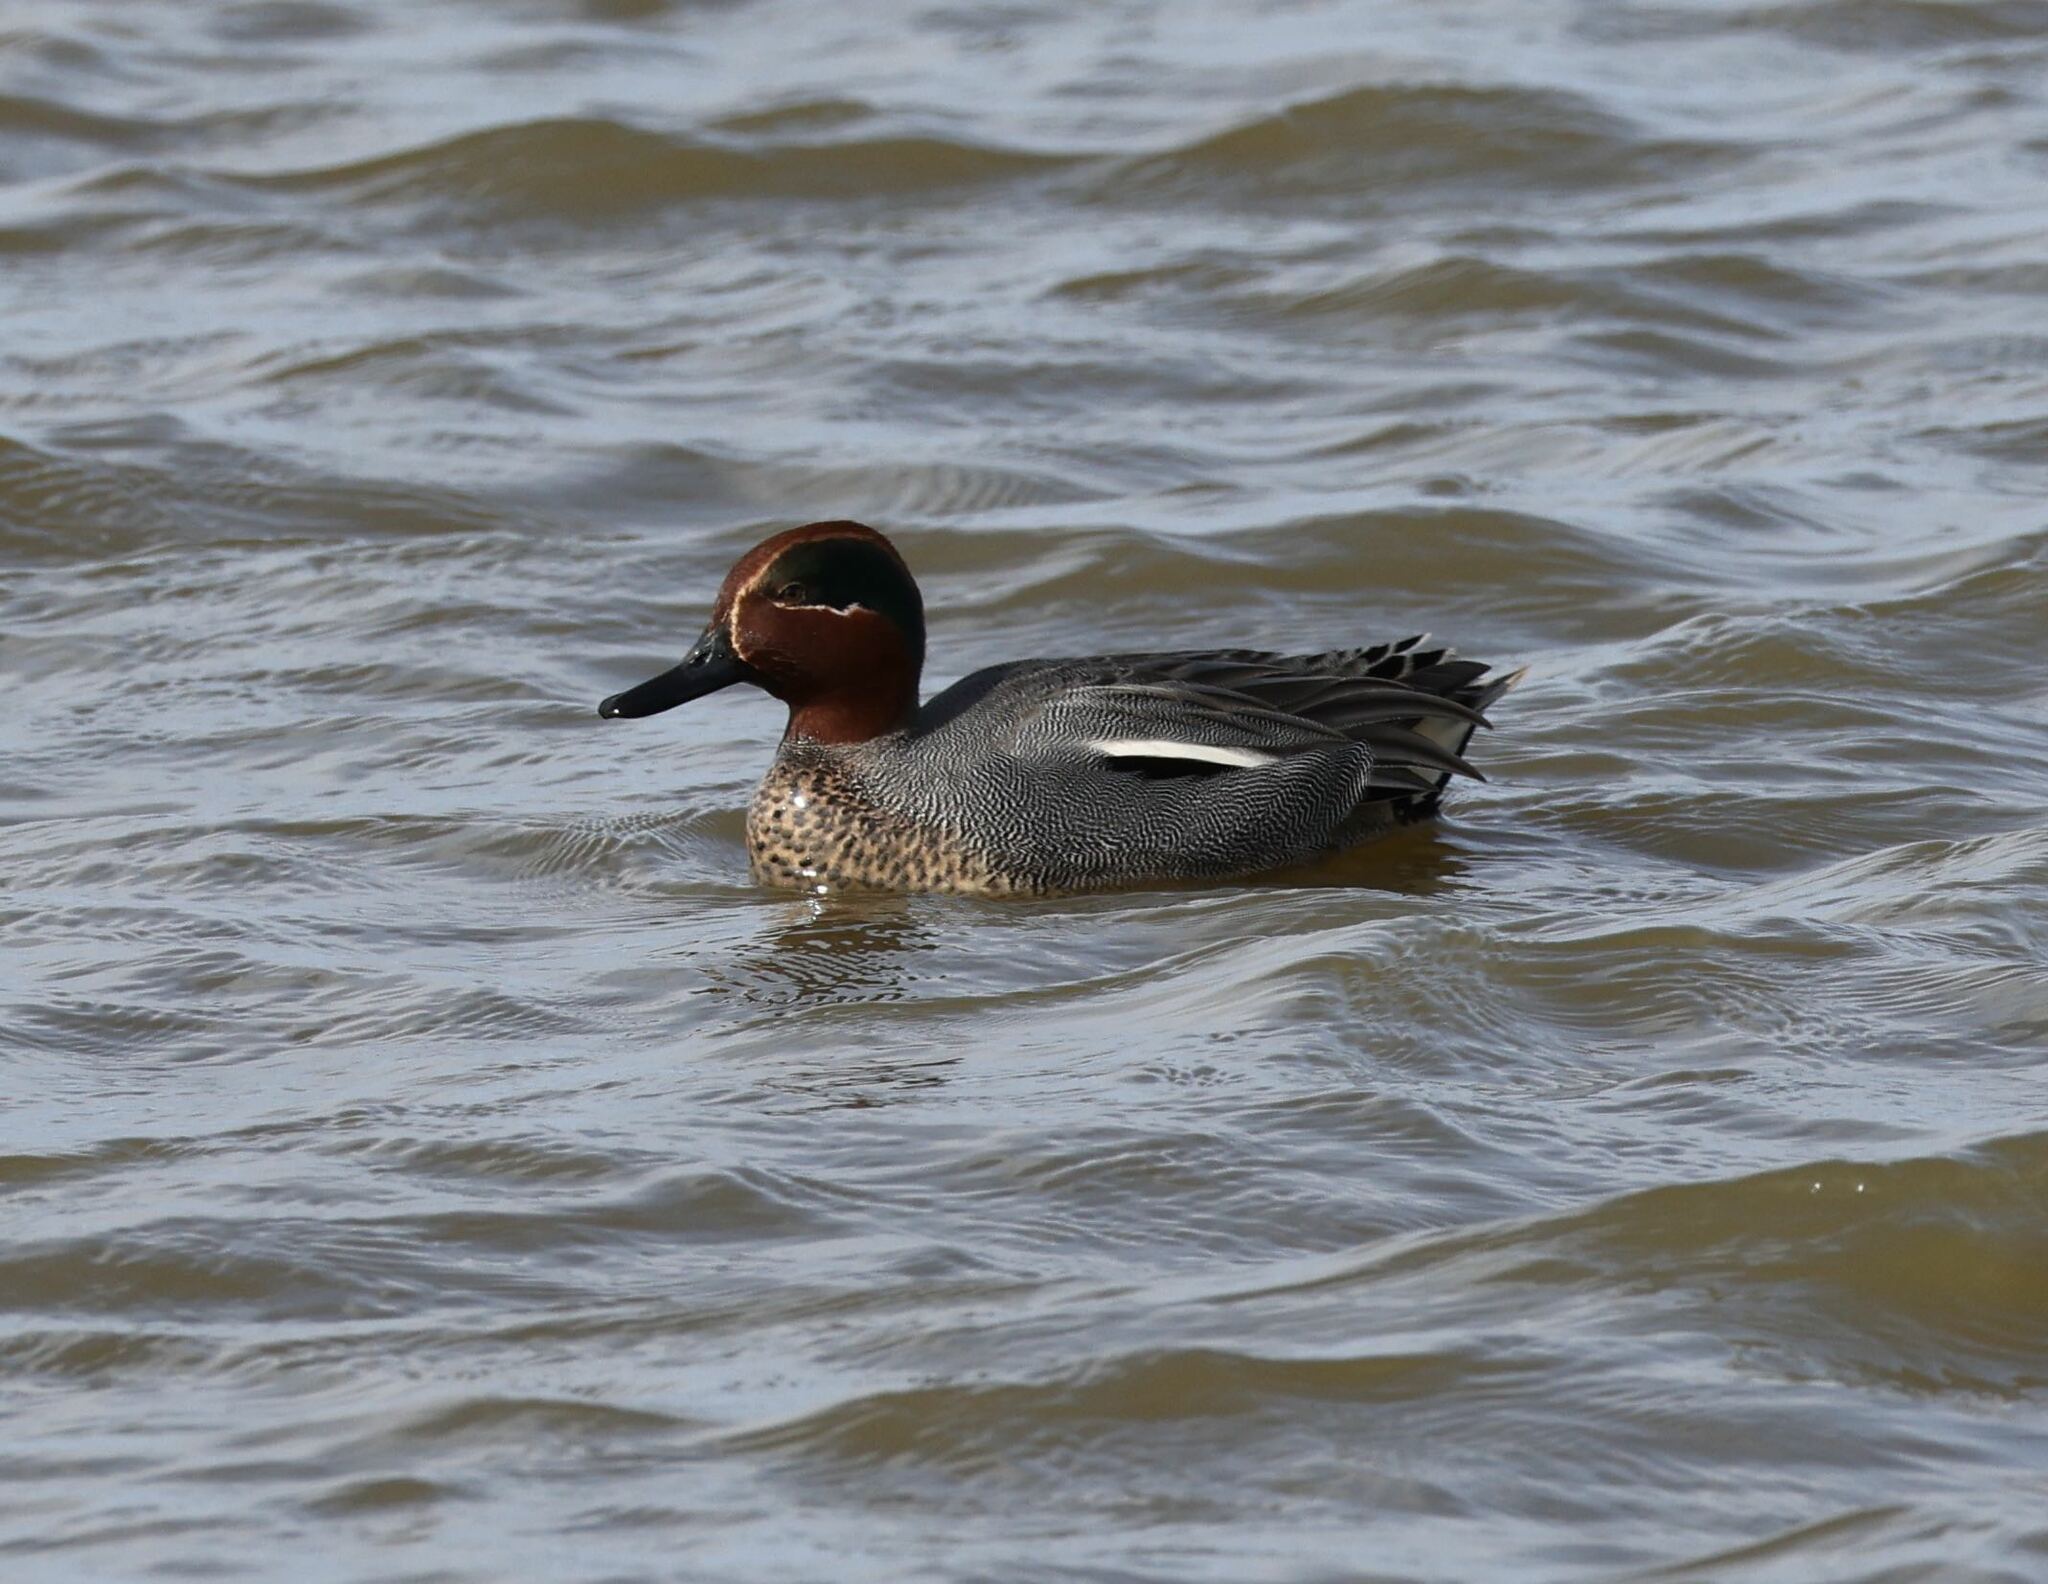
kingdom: Animalia
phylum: Chordata
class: Aves
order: Anseriformes
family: Anatidae
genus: Anas
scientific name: Anas crecca
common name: Eurasian teal
